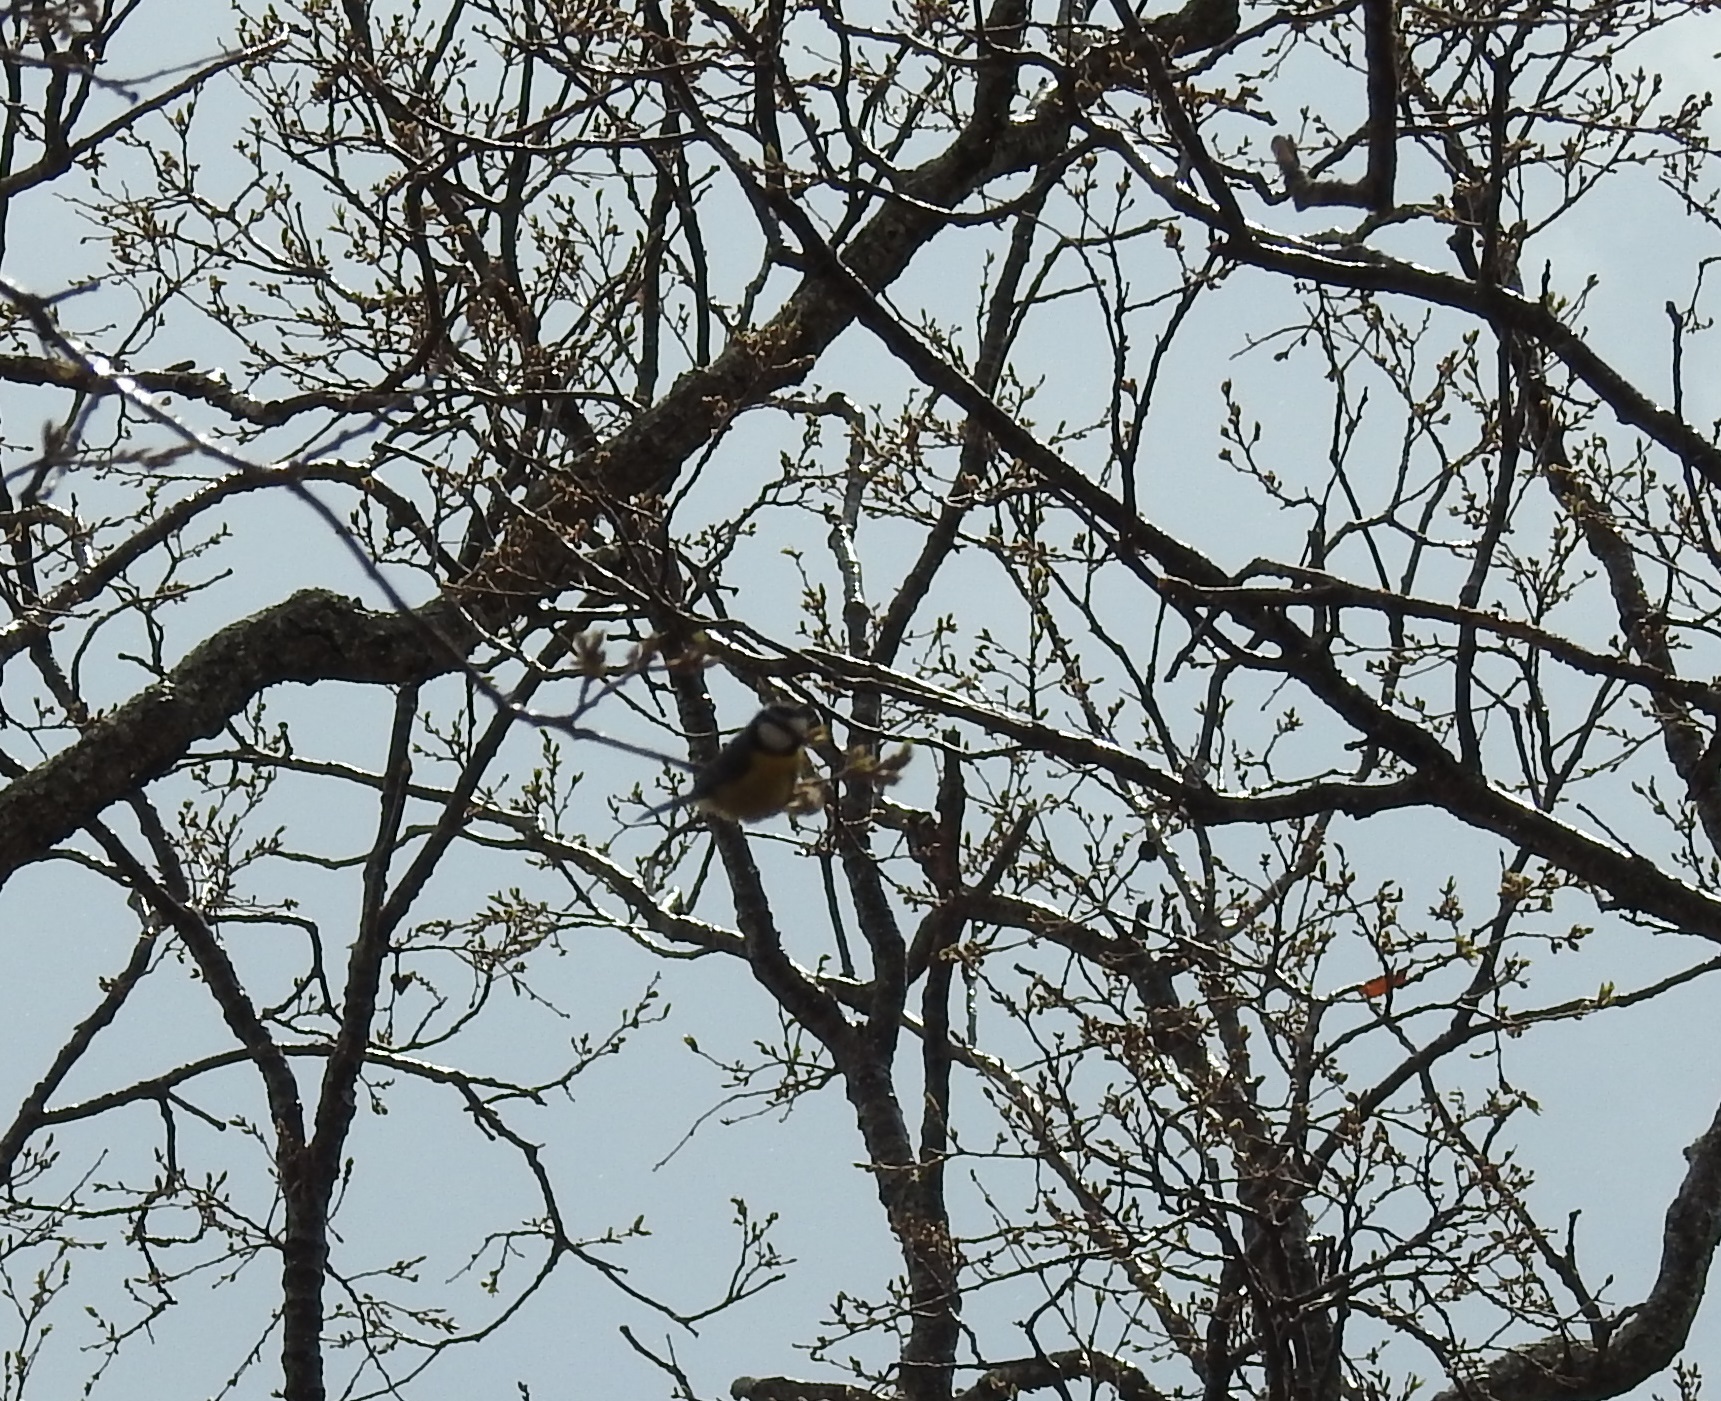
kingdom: Animalia
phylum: Chordata
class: Aves
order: Passeriformes
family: Paridae
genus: Cyanistes
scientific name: Cyanistes teneriffae
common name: African blue tit
